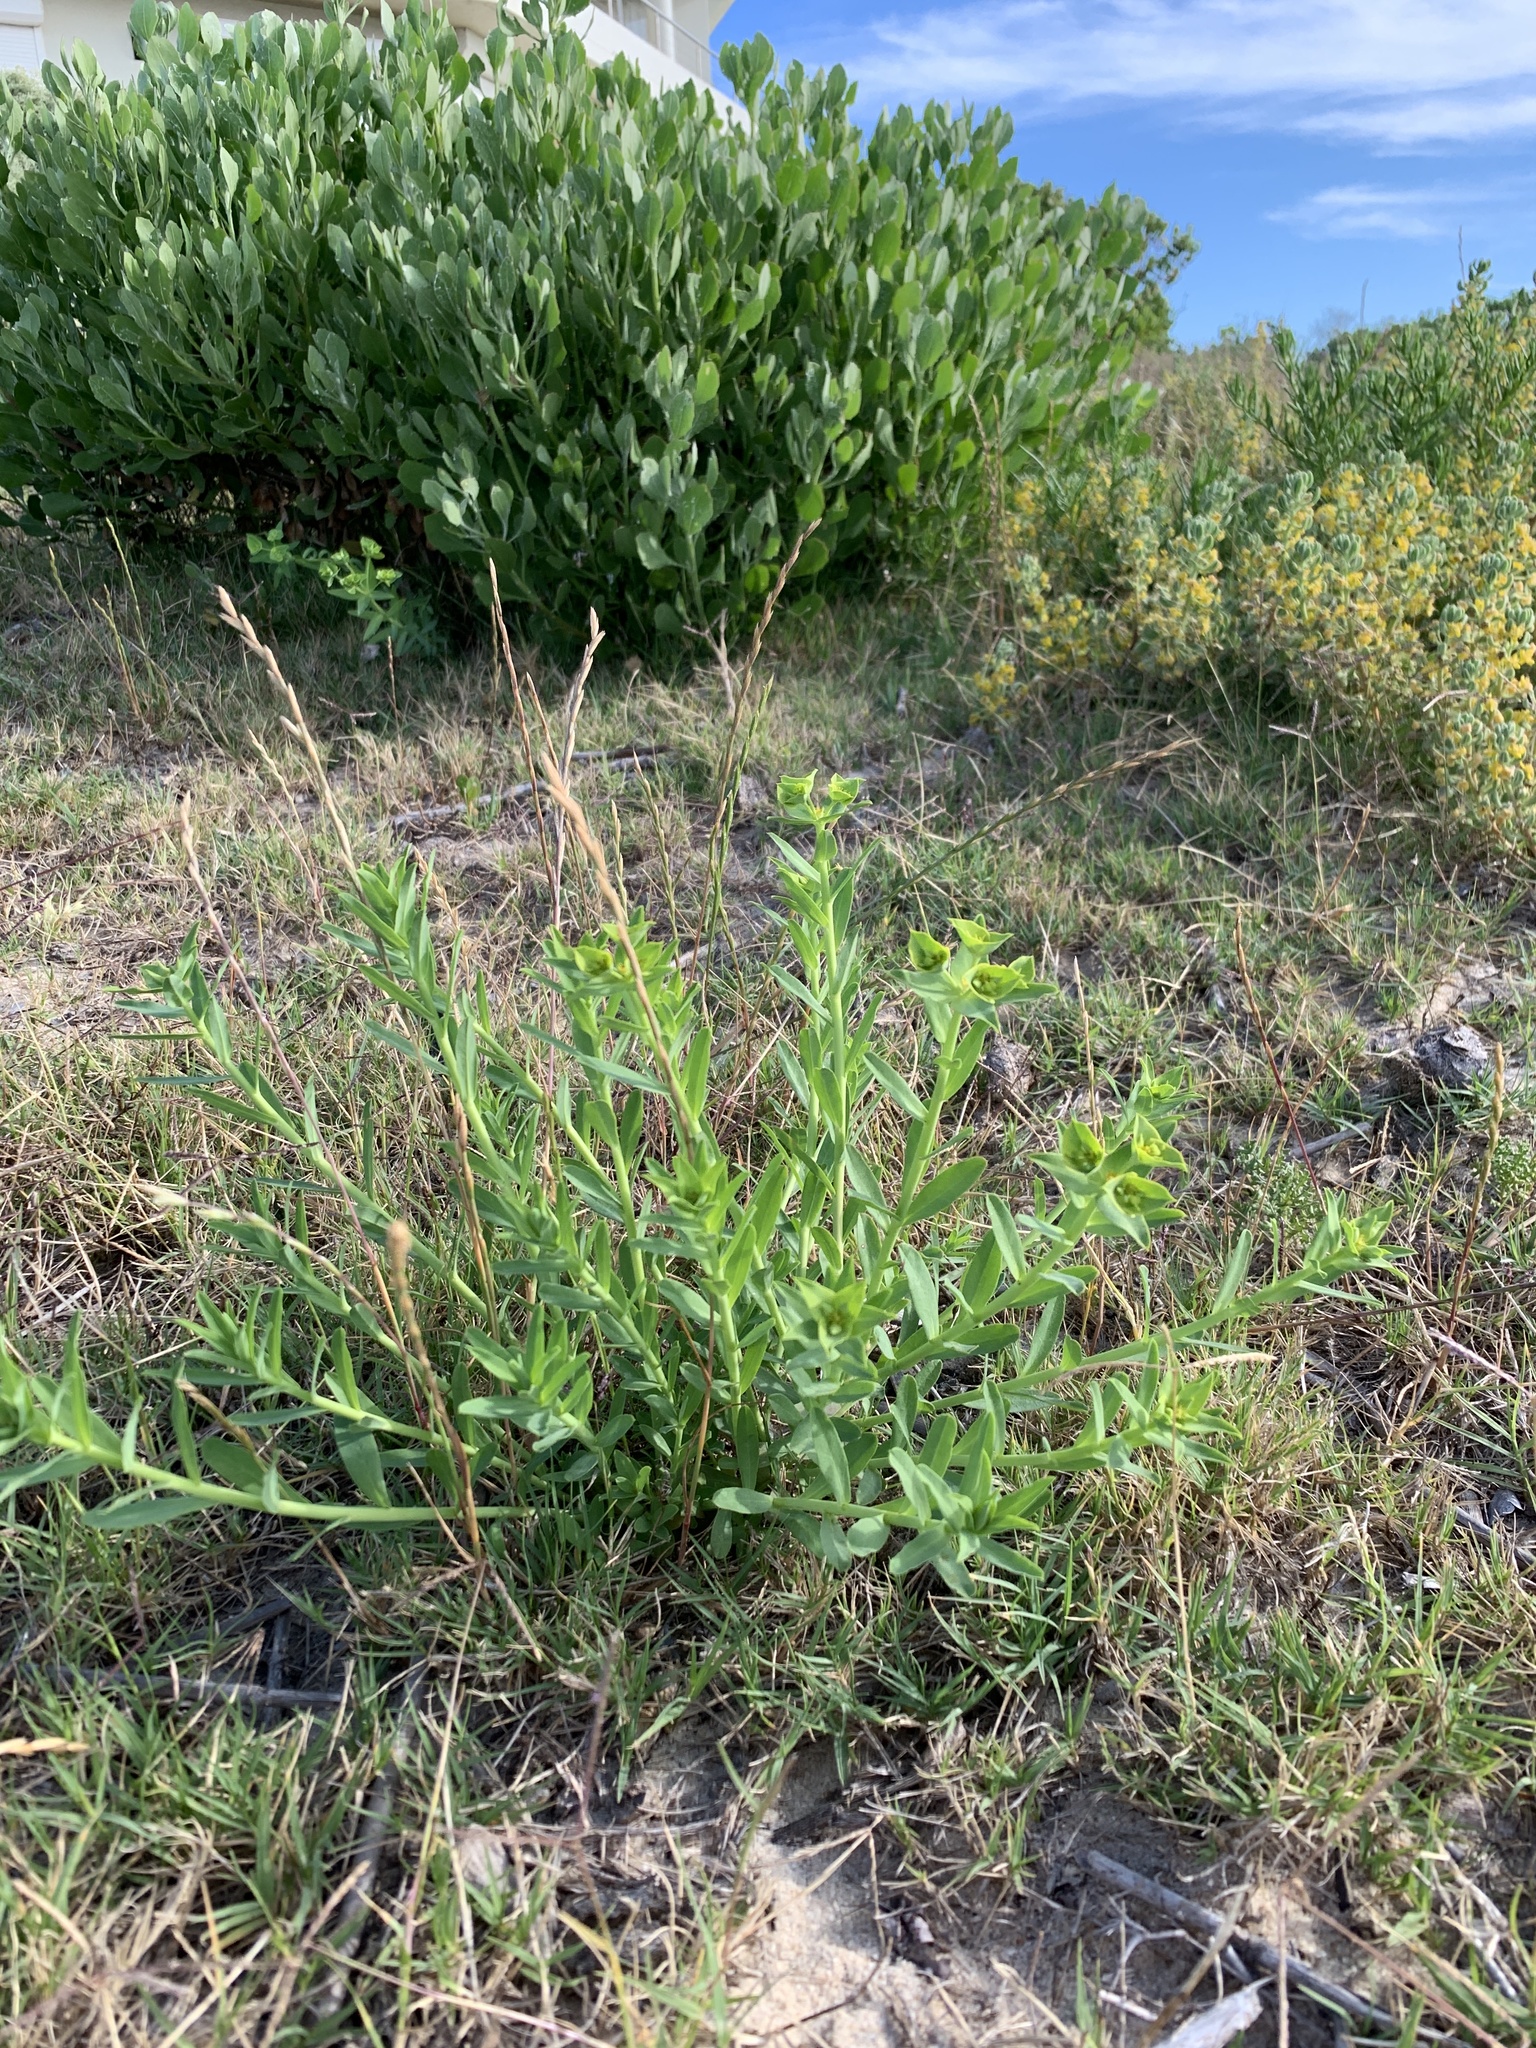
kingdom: Plantae
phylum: Tracheophyta
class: Magnoliopsida
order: Malpighiales
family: Euphorbiaceae
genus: Euphorbia
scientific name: Euphorbia terracina
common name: Geraldton carnation weed
